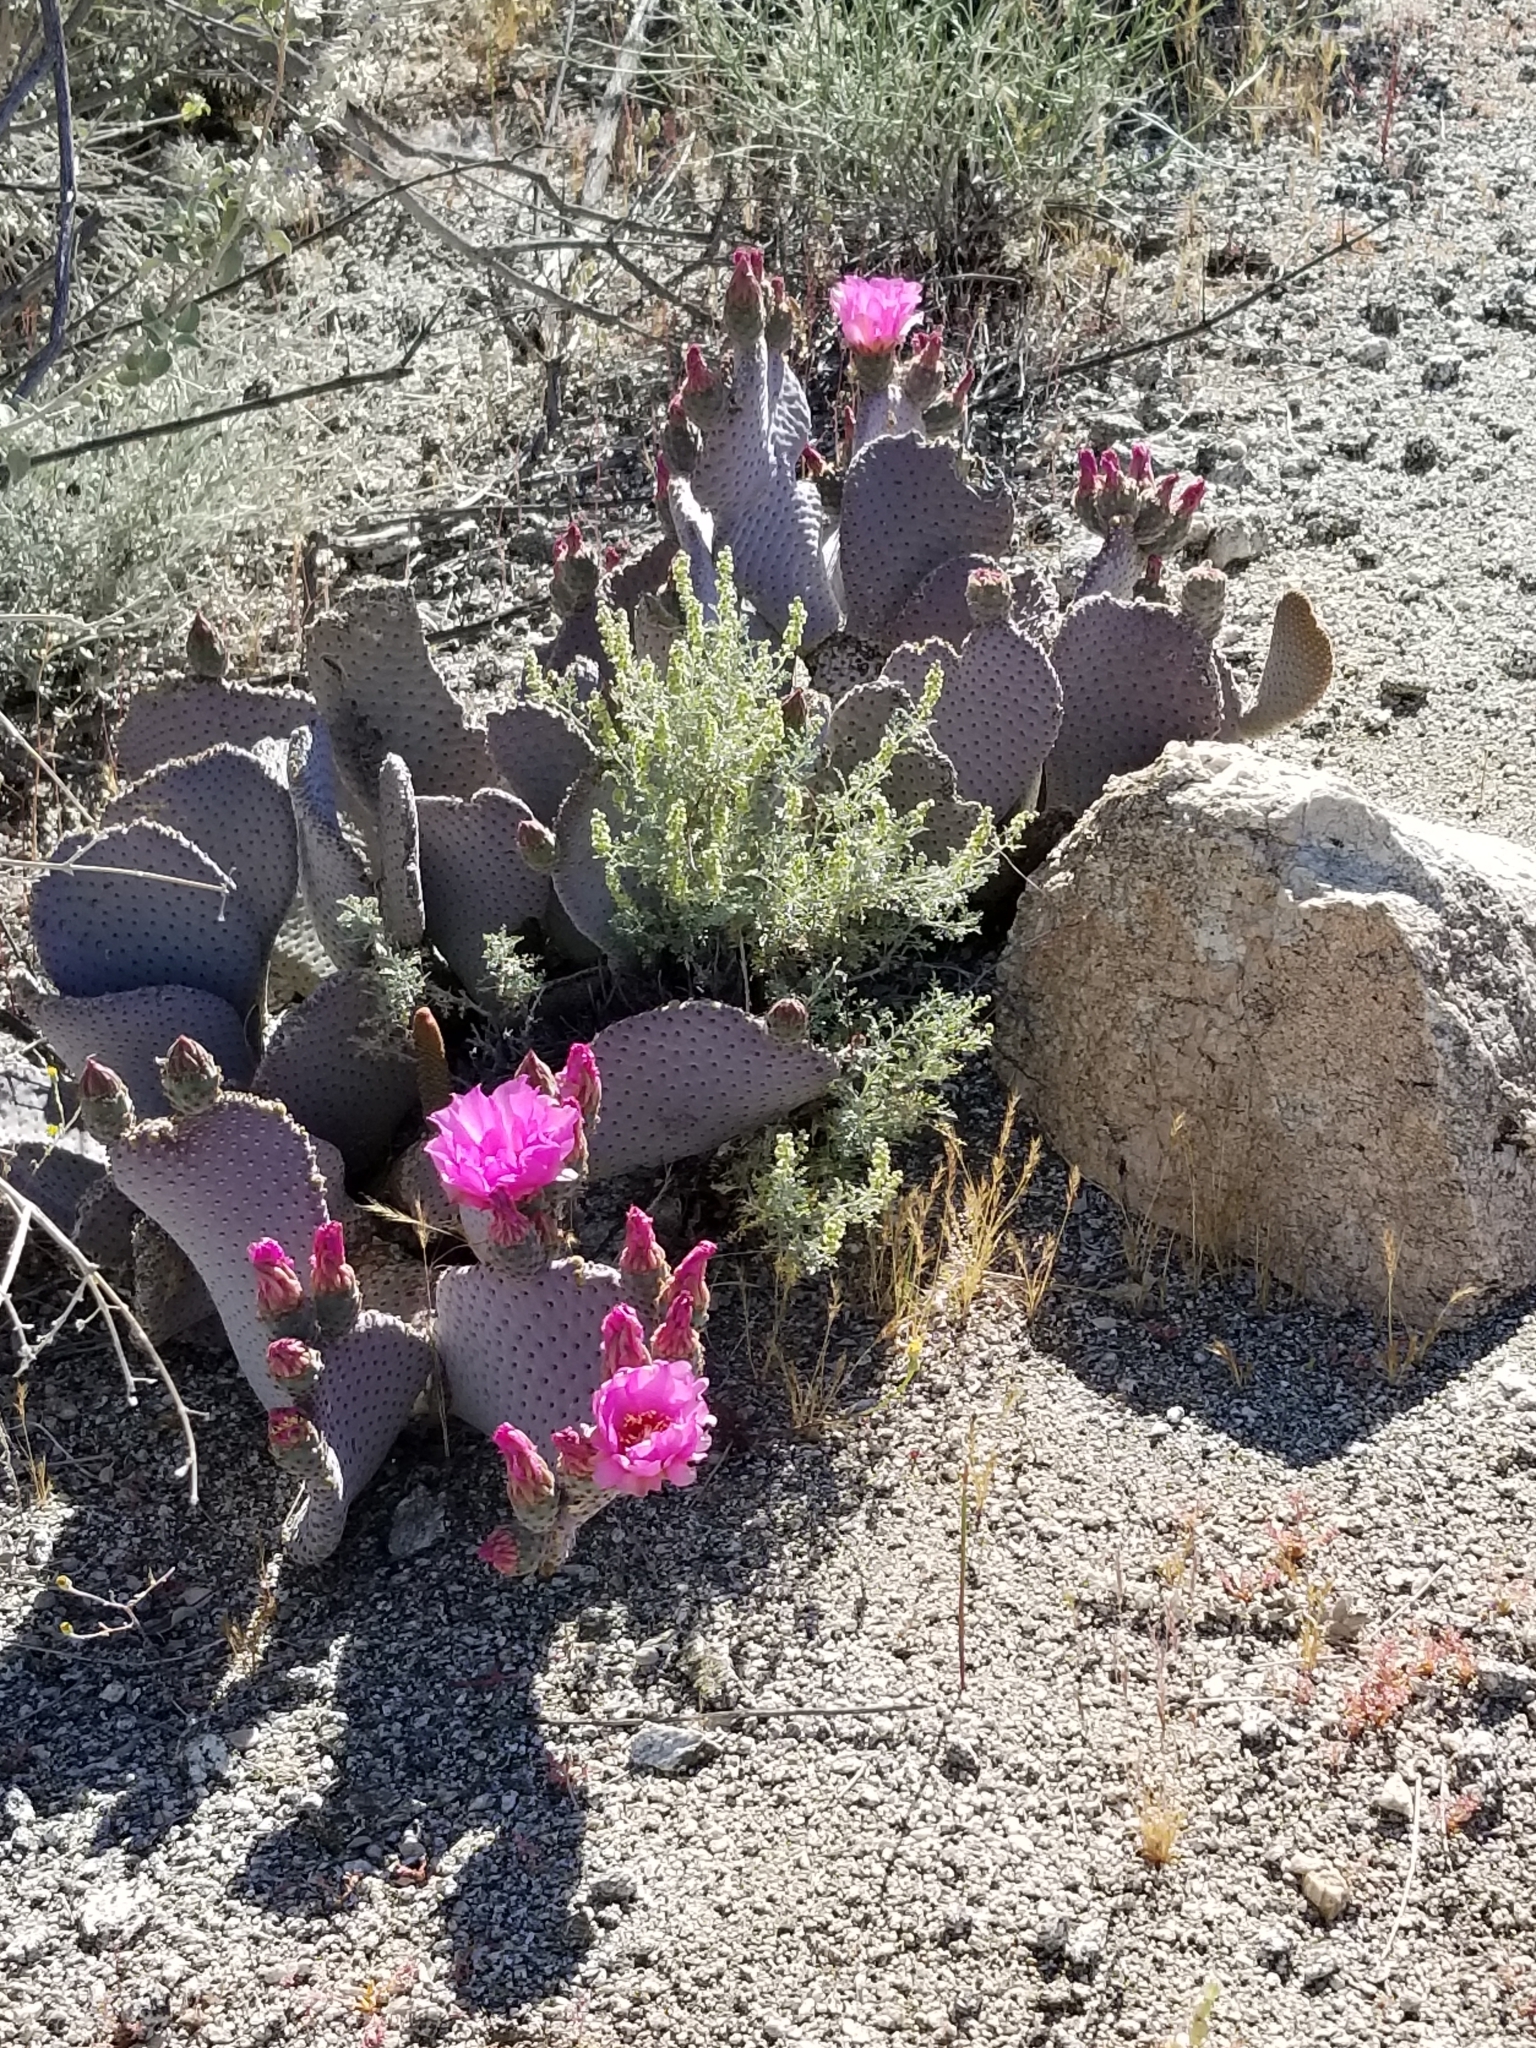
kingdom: Plantae
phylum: Tracheophyta
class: Magnoliopsida
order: Caryophyllales
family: Cactaceae
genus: Opuntia
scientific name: Opuntia basilaris
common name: Beavertail prickly-pear
